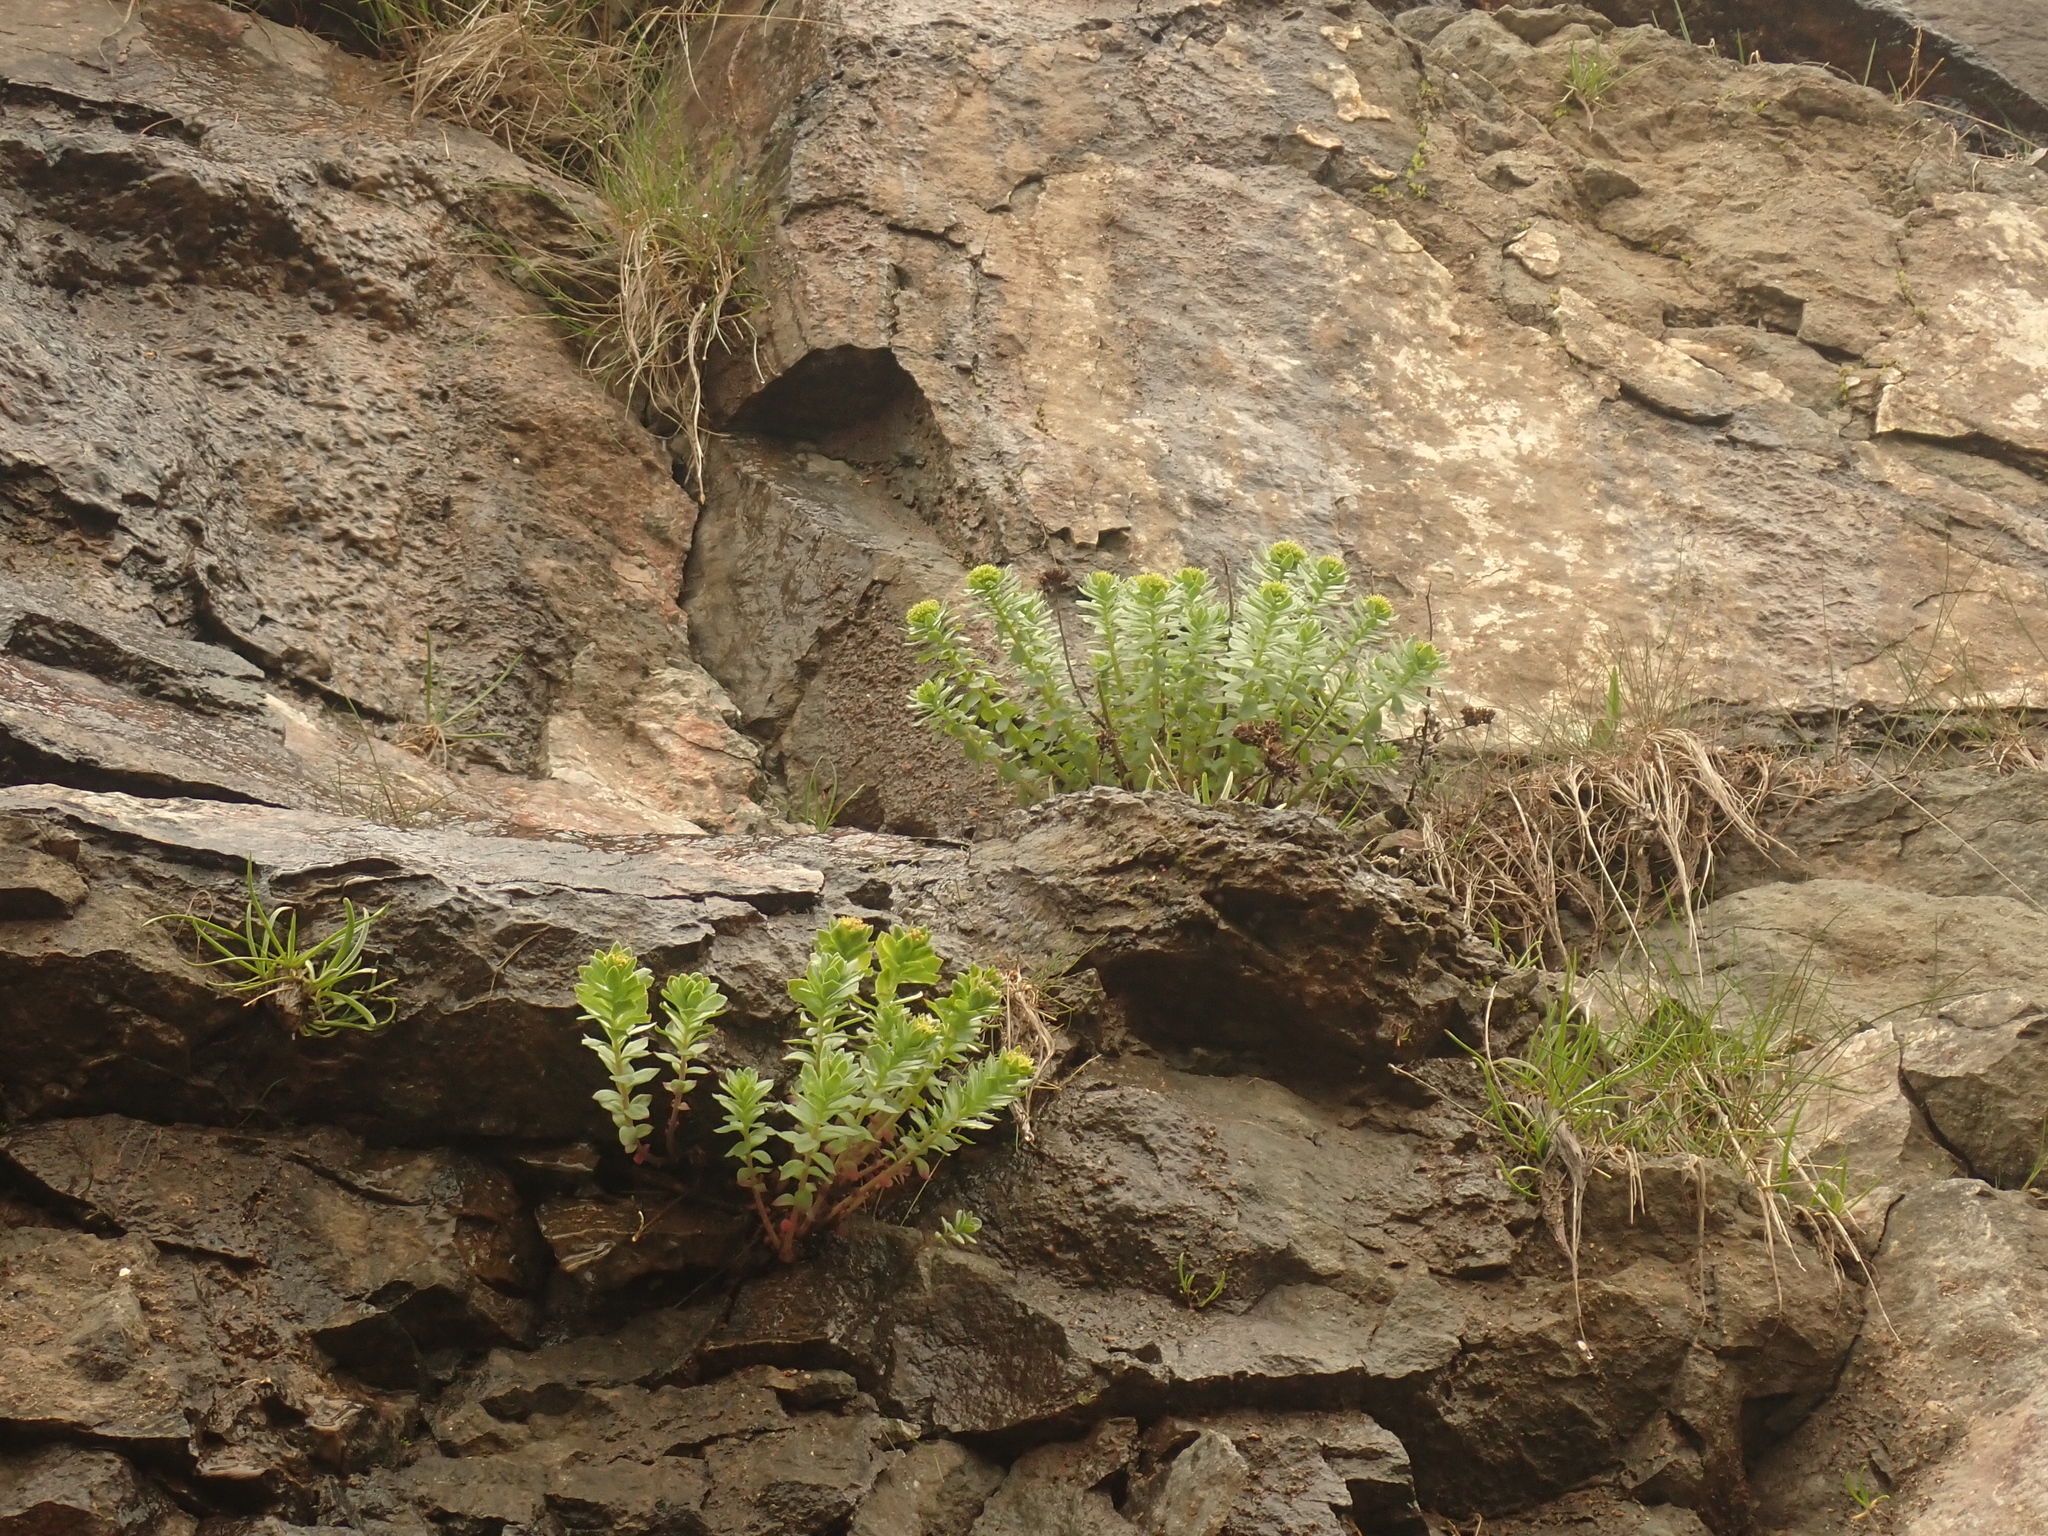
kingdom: Plantae
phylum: Tracheophyta
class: Magnoliopsida
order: Saxifragales
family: Crassulaceae
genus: Rhodiola
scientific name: Rhodiola rosea
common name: Roseroot
